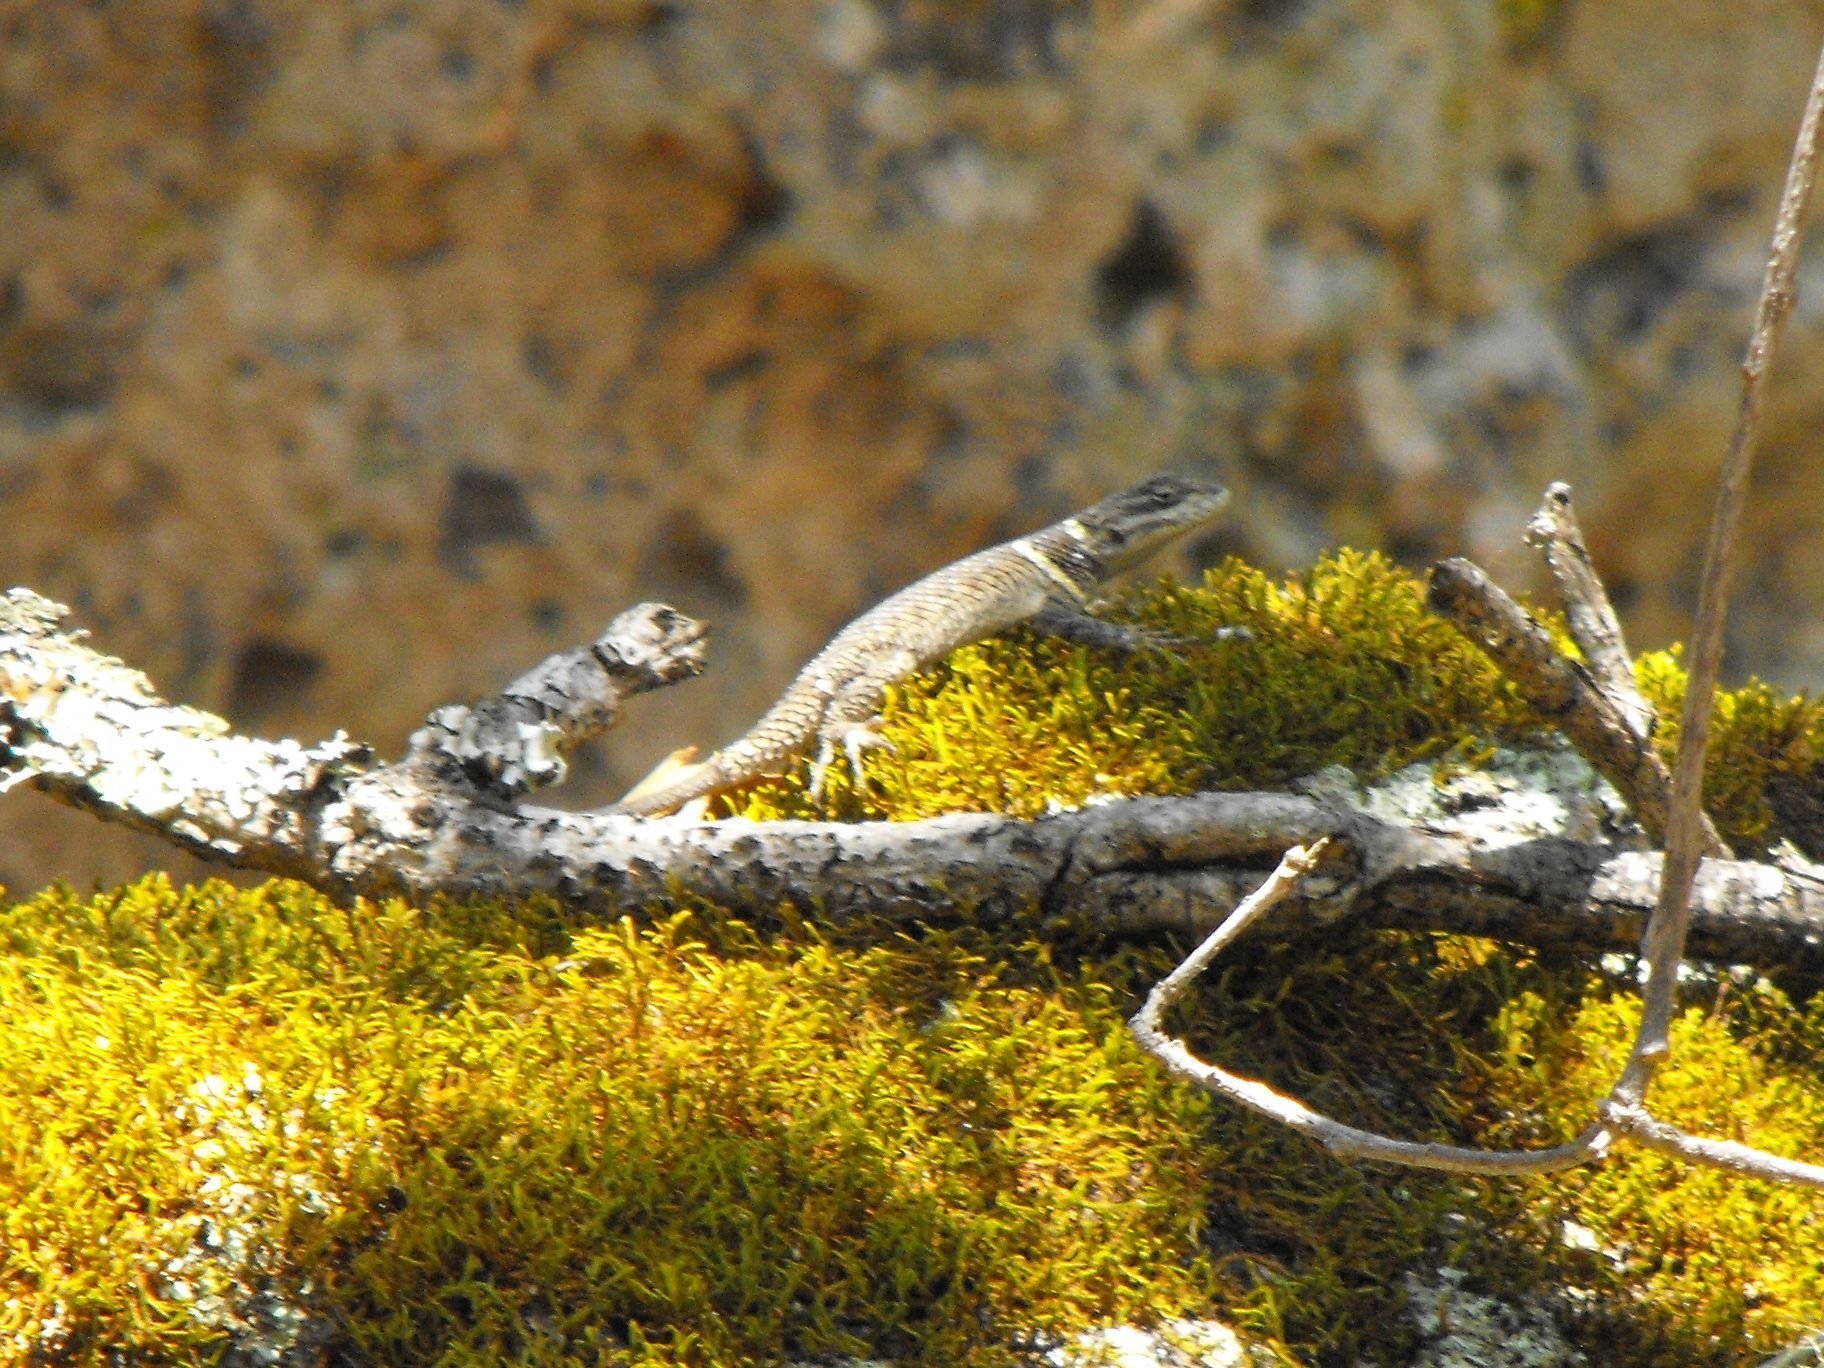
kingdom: Animalia
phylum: Chordata
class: Squamata
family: Phrynosomatidae
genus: Sceloporus
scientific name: Sceloporus aureolus
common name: Eastern cleft spiny lizard
